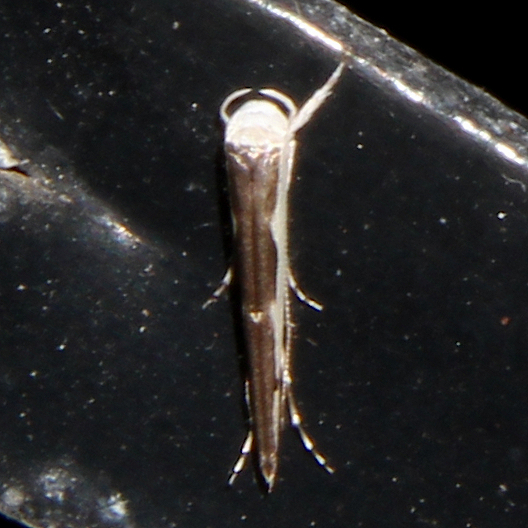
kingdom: Animalia
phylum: Arthropoda
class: Insecta
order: Lepidoptera
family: Roeslerstammiidae
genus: Vanicela
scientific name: Vanicela disjunctella
